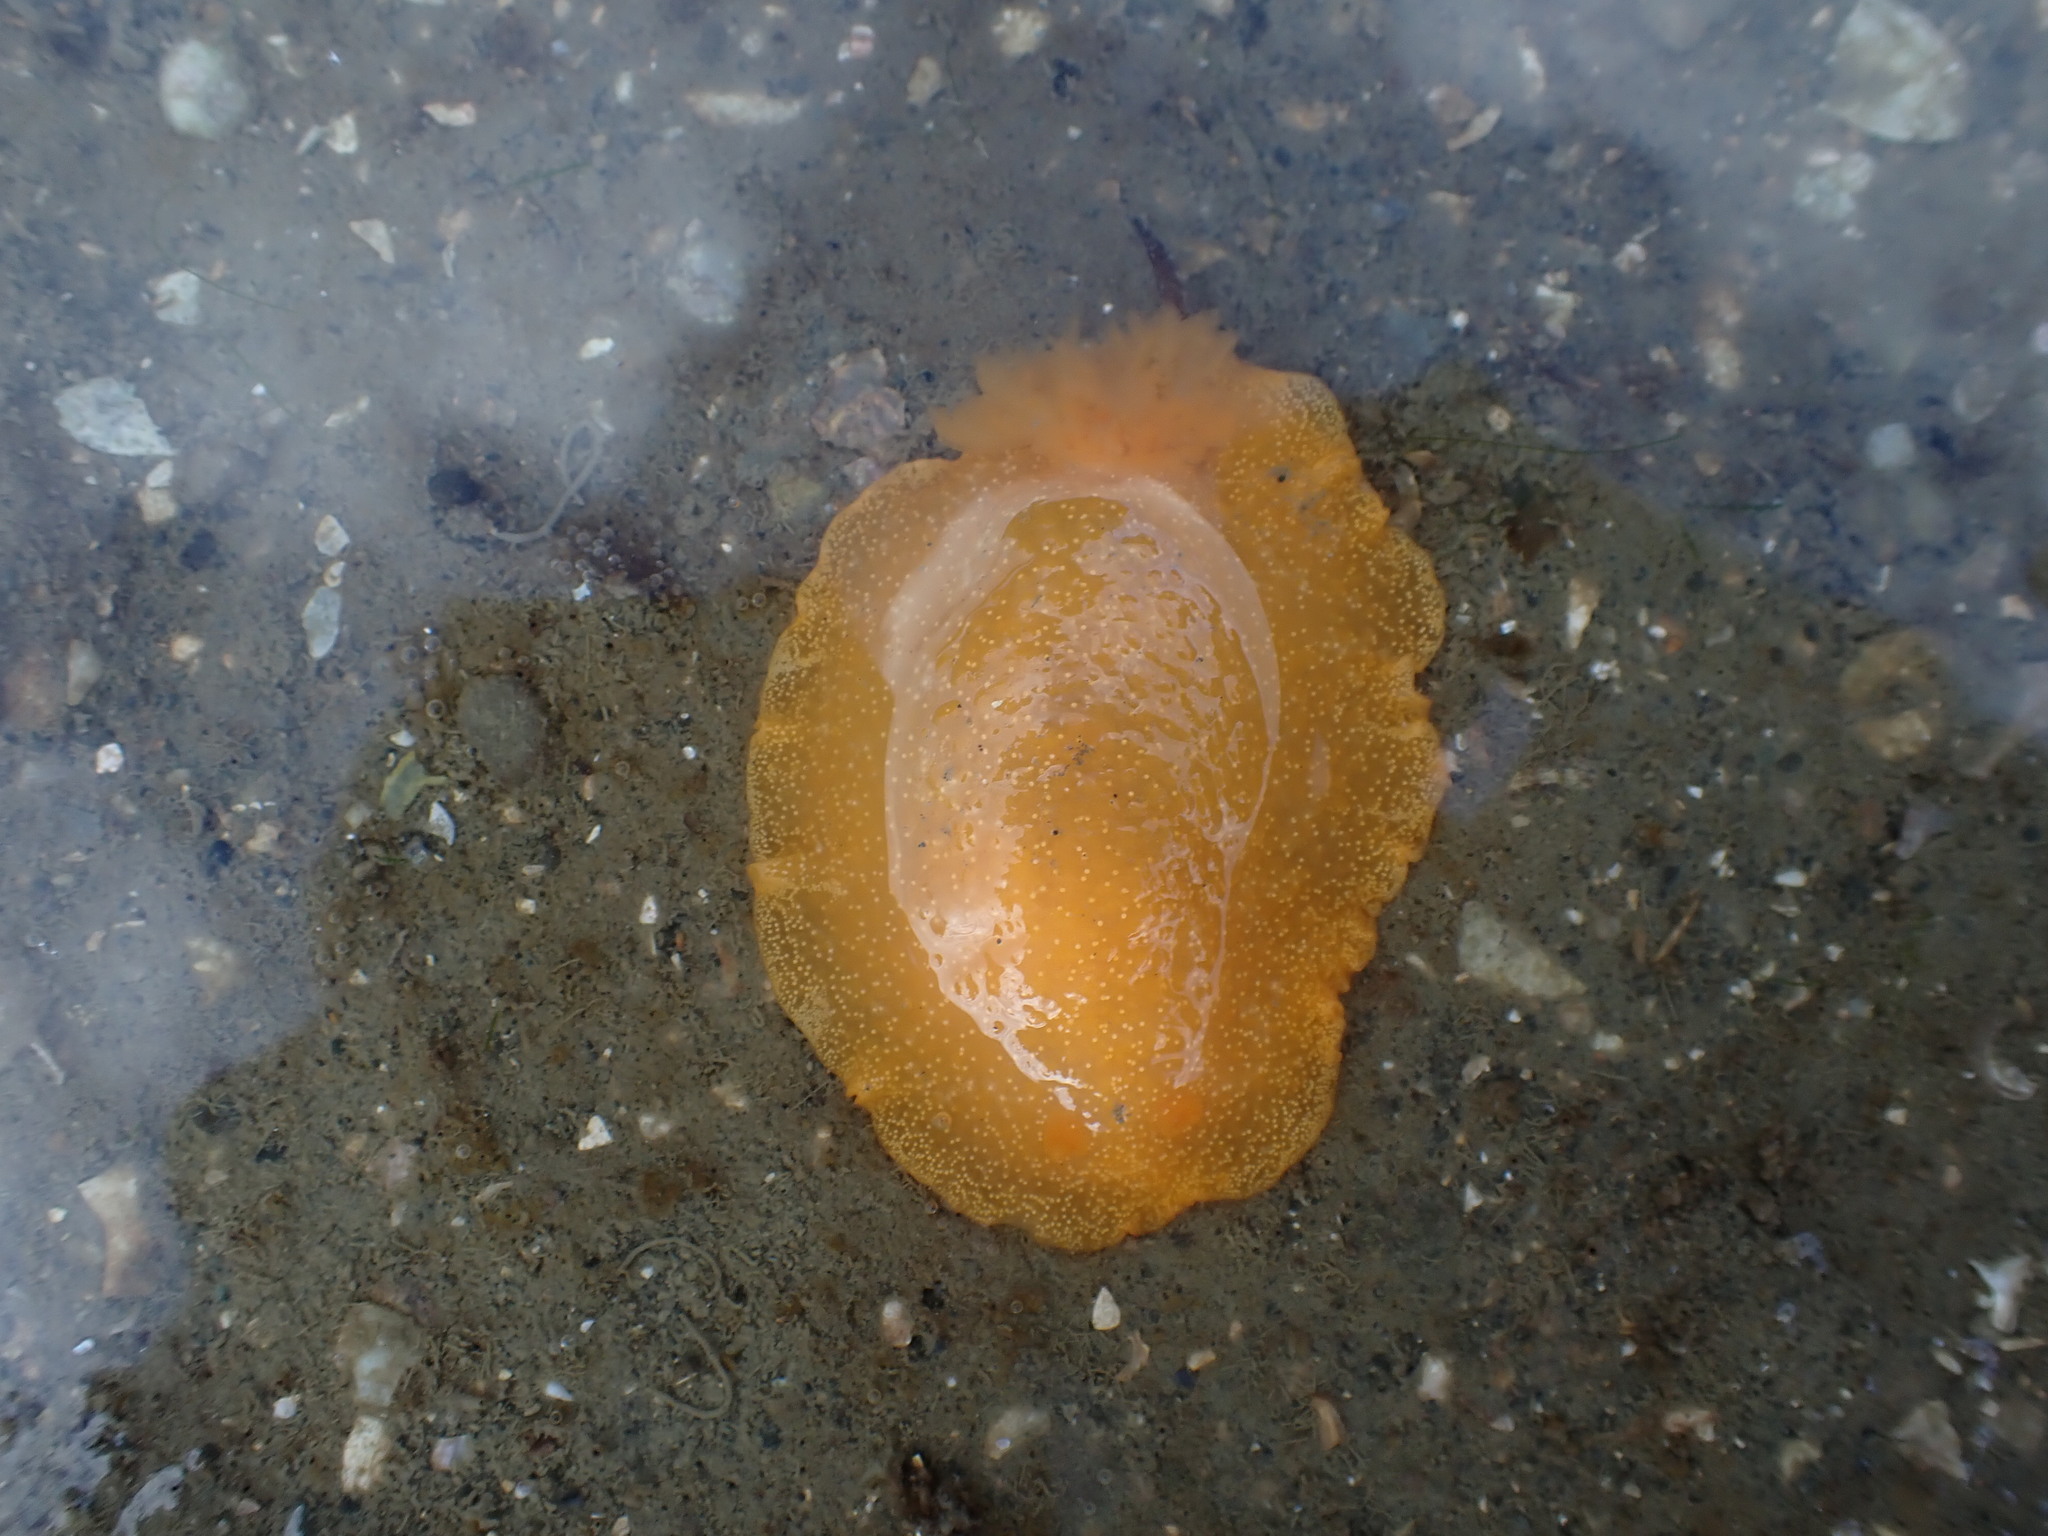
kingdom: Animalia
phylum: Mollusca
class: Gastropoda
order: Nudibranchia
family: Dendrodorididae
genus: Dendrodoris
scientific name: Dendrodoris citrina
